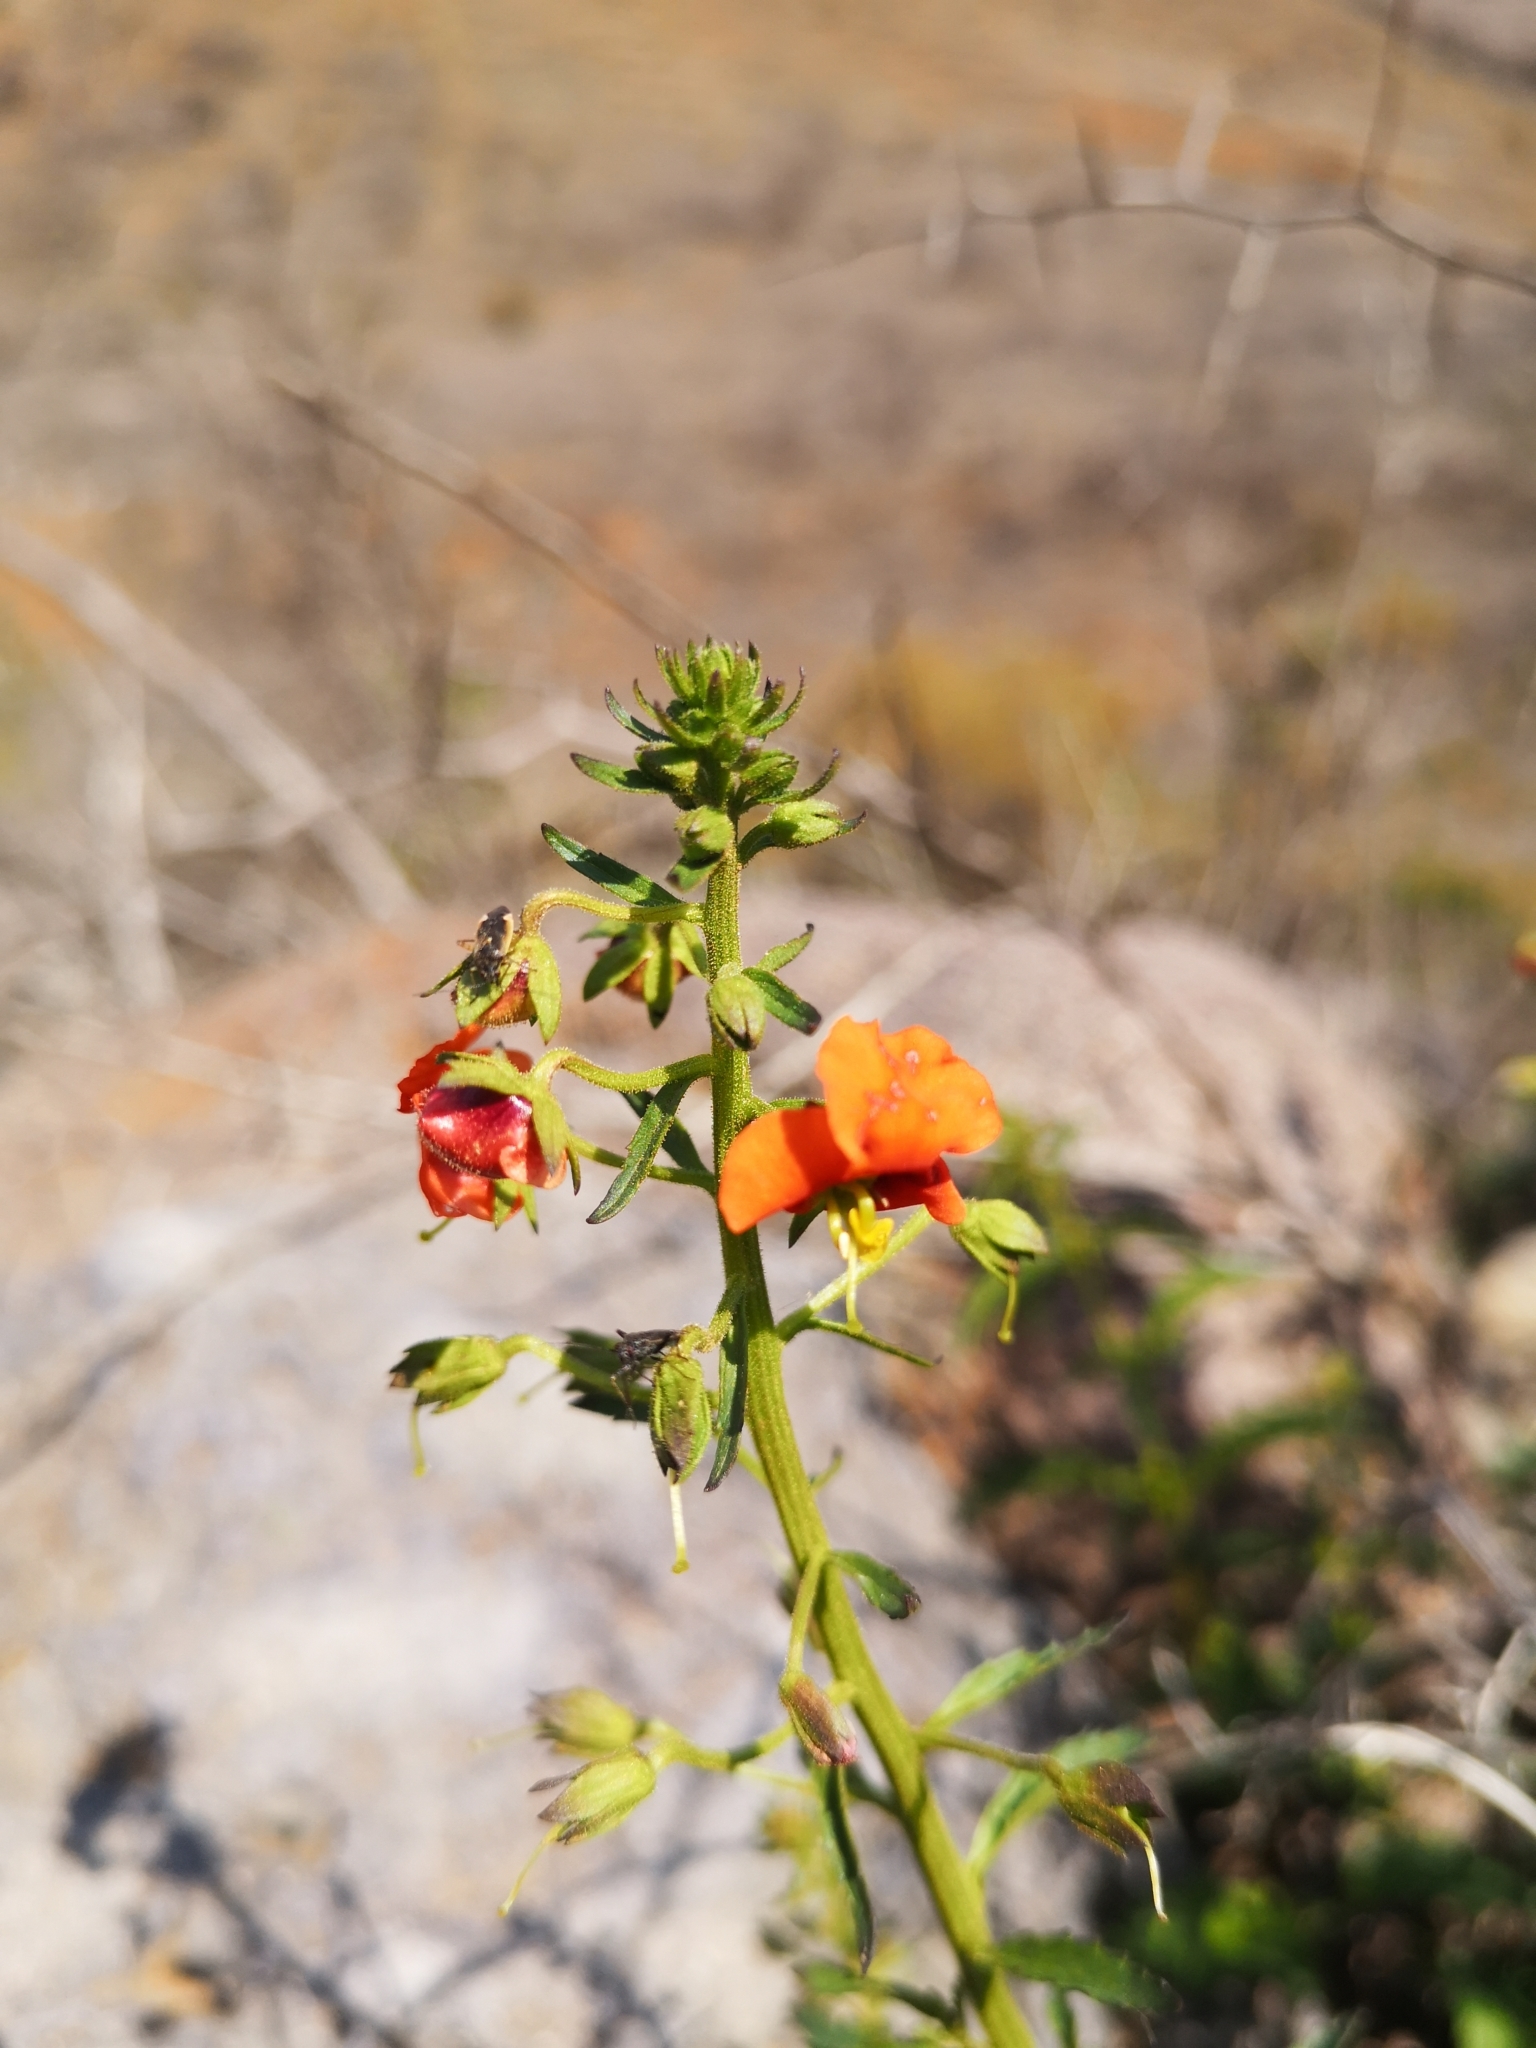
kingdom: Plantae
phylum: Tracheophyta
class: Magnoliopsida
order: Lamiales
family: Scrophulariaceae
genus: Alonsoa
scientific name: Alonsoa meridionalis
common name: Maskflower
